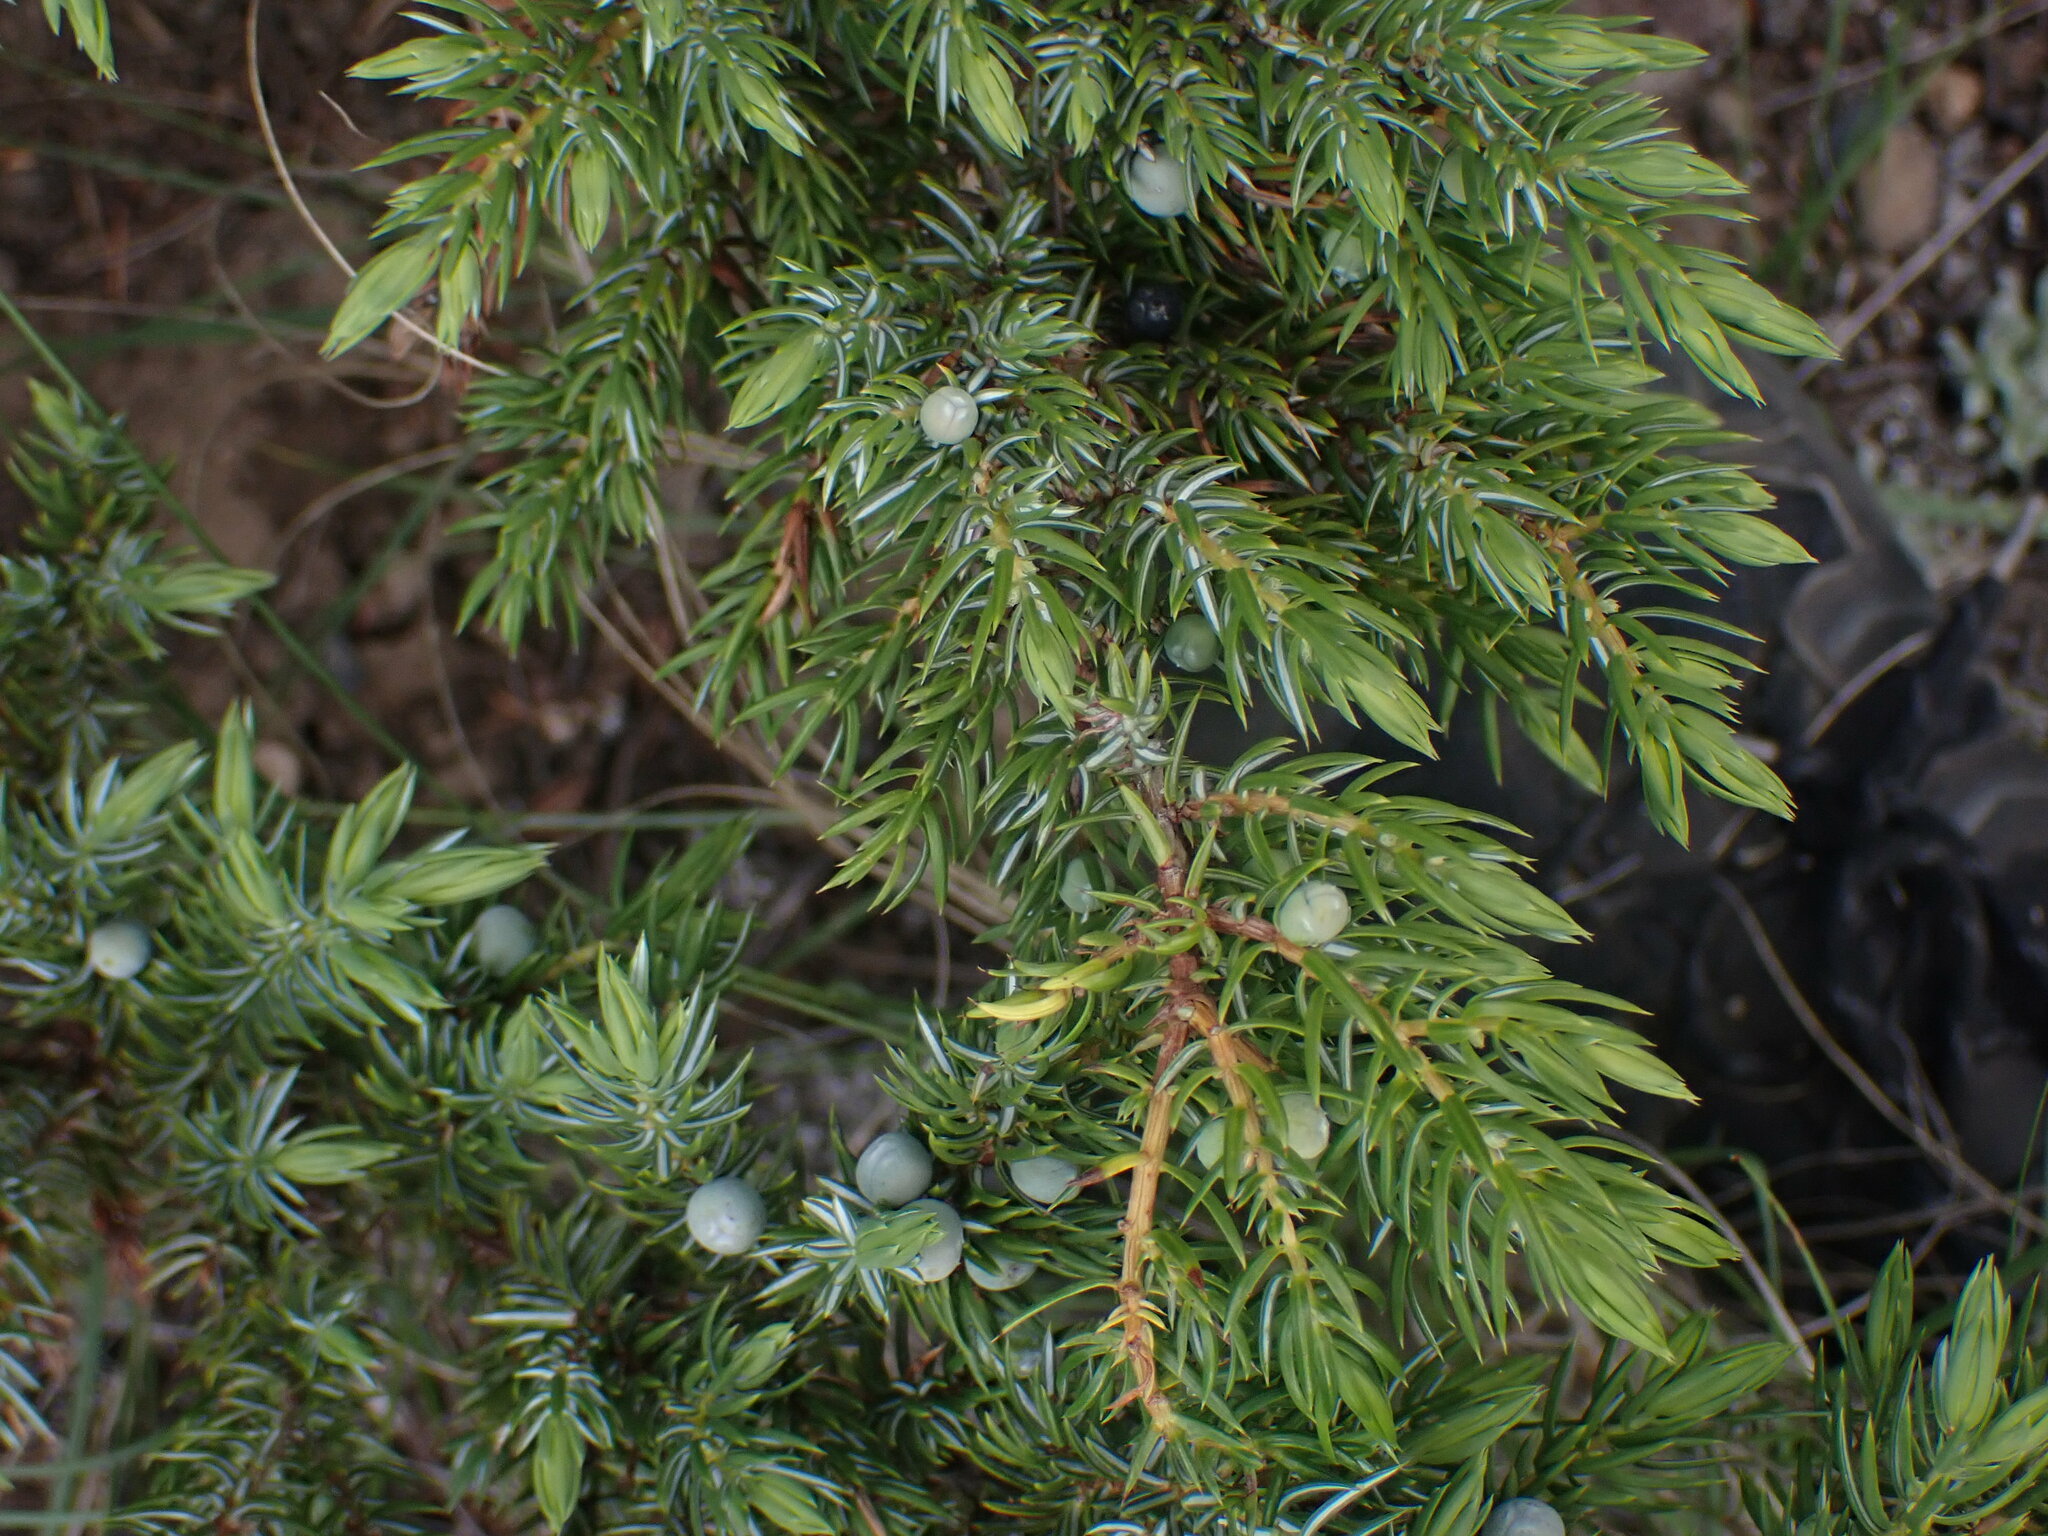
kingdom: Plantae
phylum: Tracheophyta
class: Pinopsida
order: Pinales
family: Cupressaceae
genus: Juniperus
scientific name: Juniperus communis
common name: Common juniper
